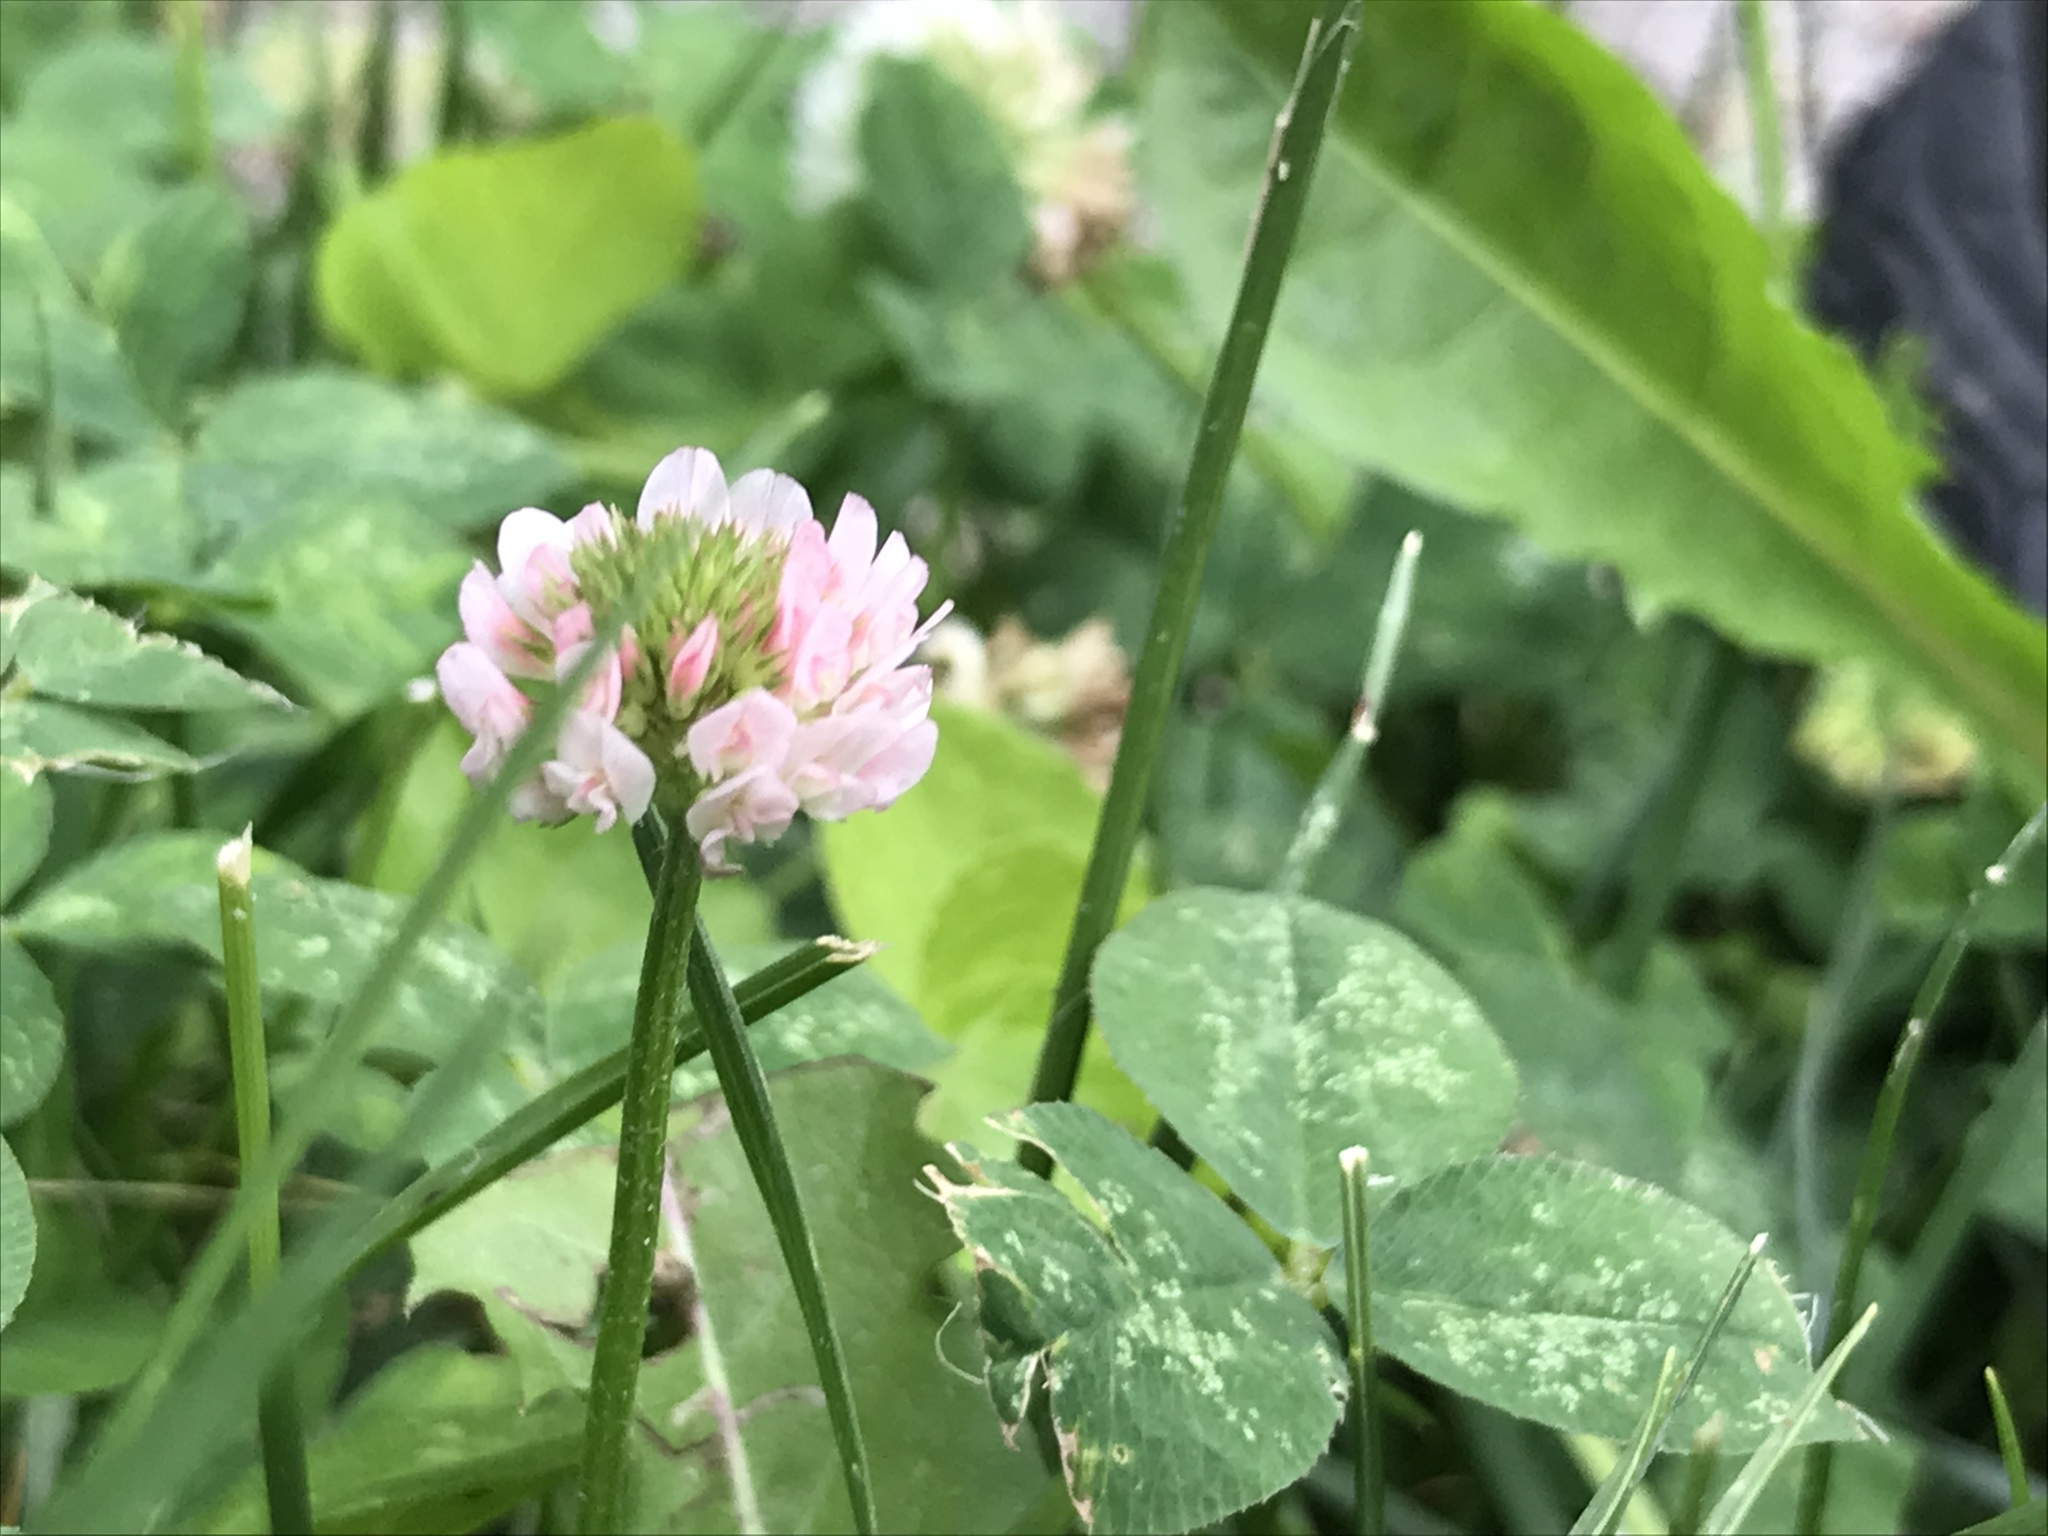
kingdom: Plantae
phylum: Tracheophyta
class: Magnoliopsida
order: Fabales
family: Fabaceae
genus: Trifolium
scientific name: Trifolium repens
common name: White clover
